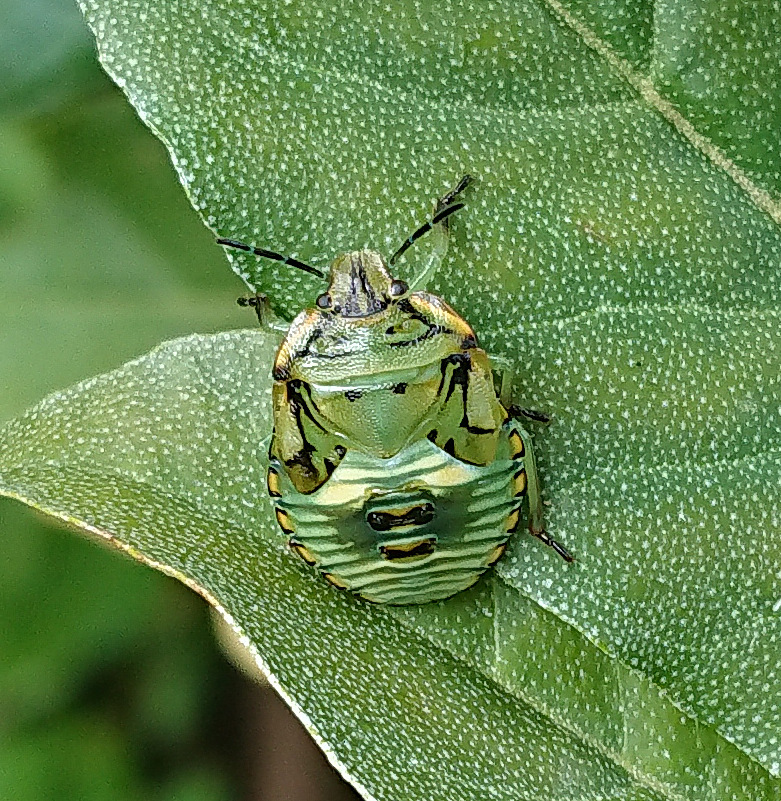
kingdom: Animalia
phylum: Arthropoda
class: Insecta
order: Hemiptera
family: Pentatomidae
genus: Chinavia
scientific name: Chinavia hilaris
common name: Green stink bug
